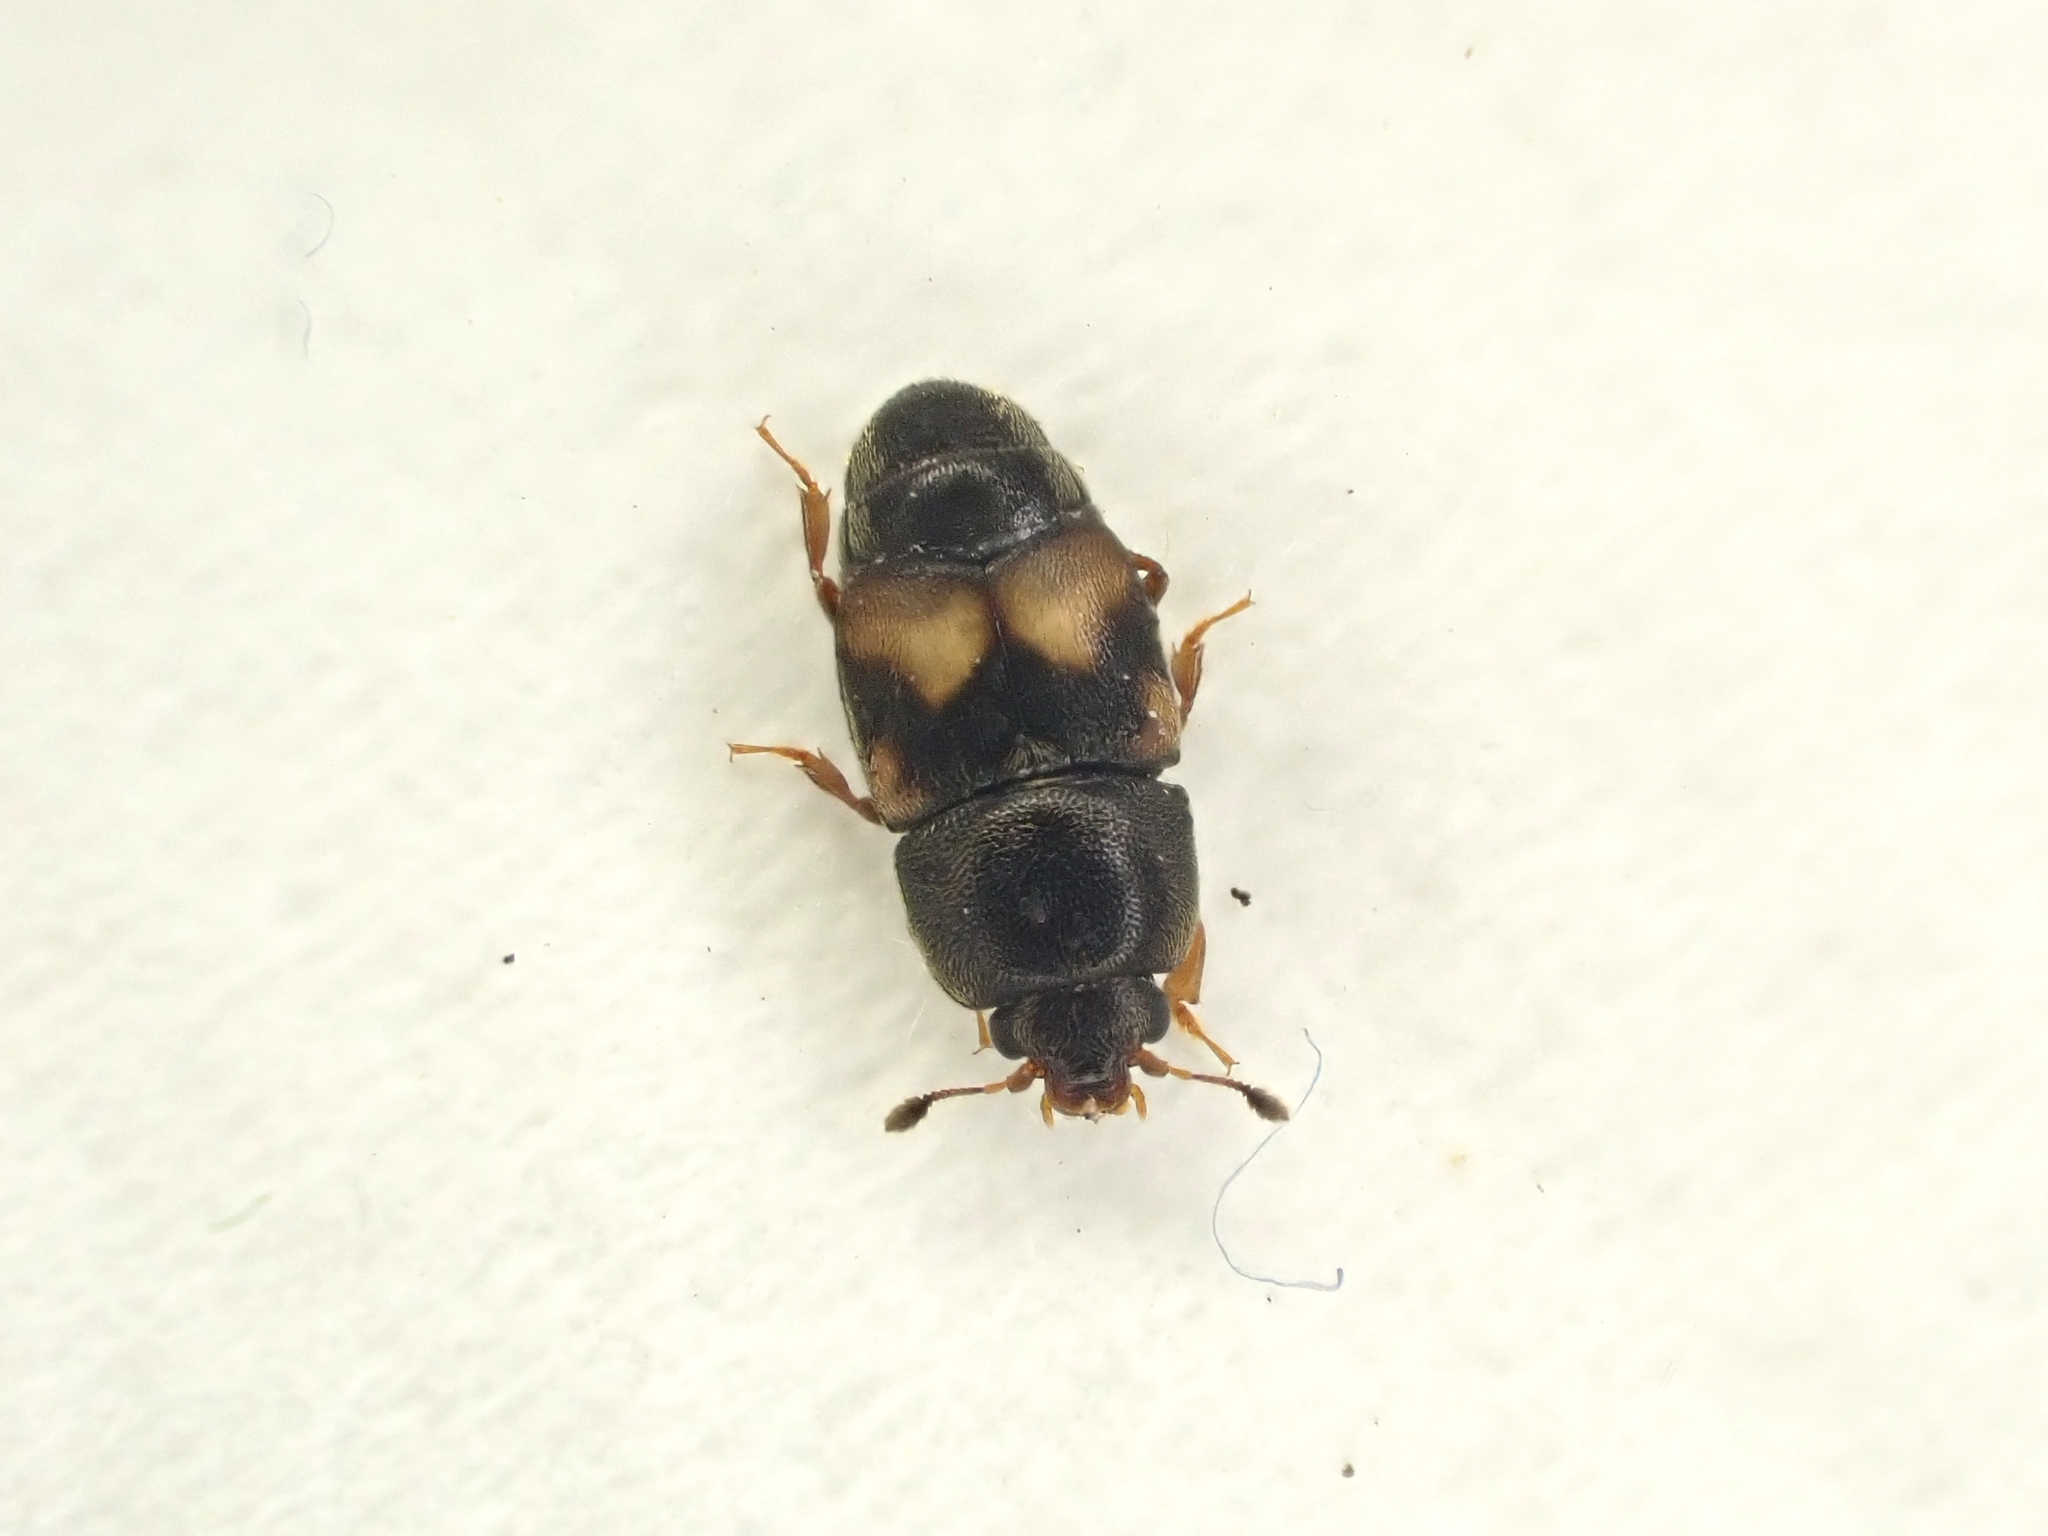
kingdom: Animalia
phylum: Arthropoda
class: Insecta
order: Coleoptera
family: Nitidulidae
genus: Carpophilus
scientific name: Carpophilus hemipterus
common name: Dried fruit beetle
